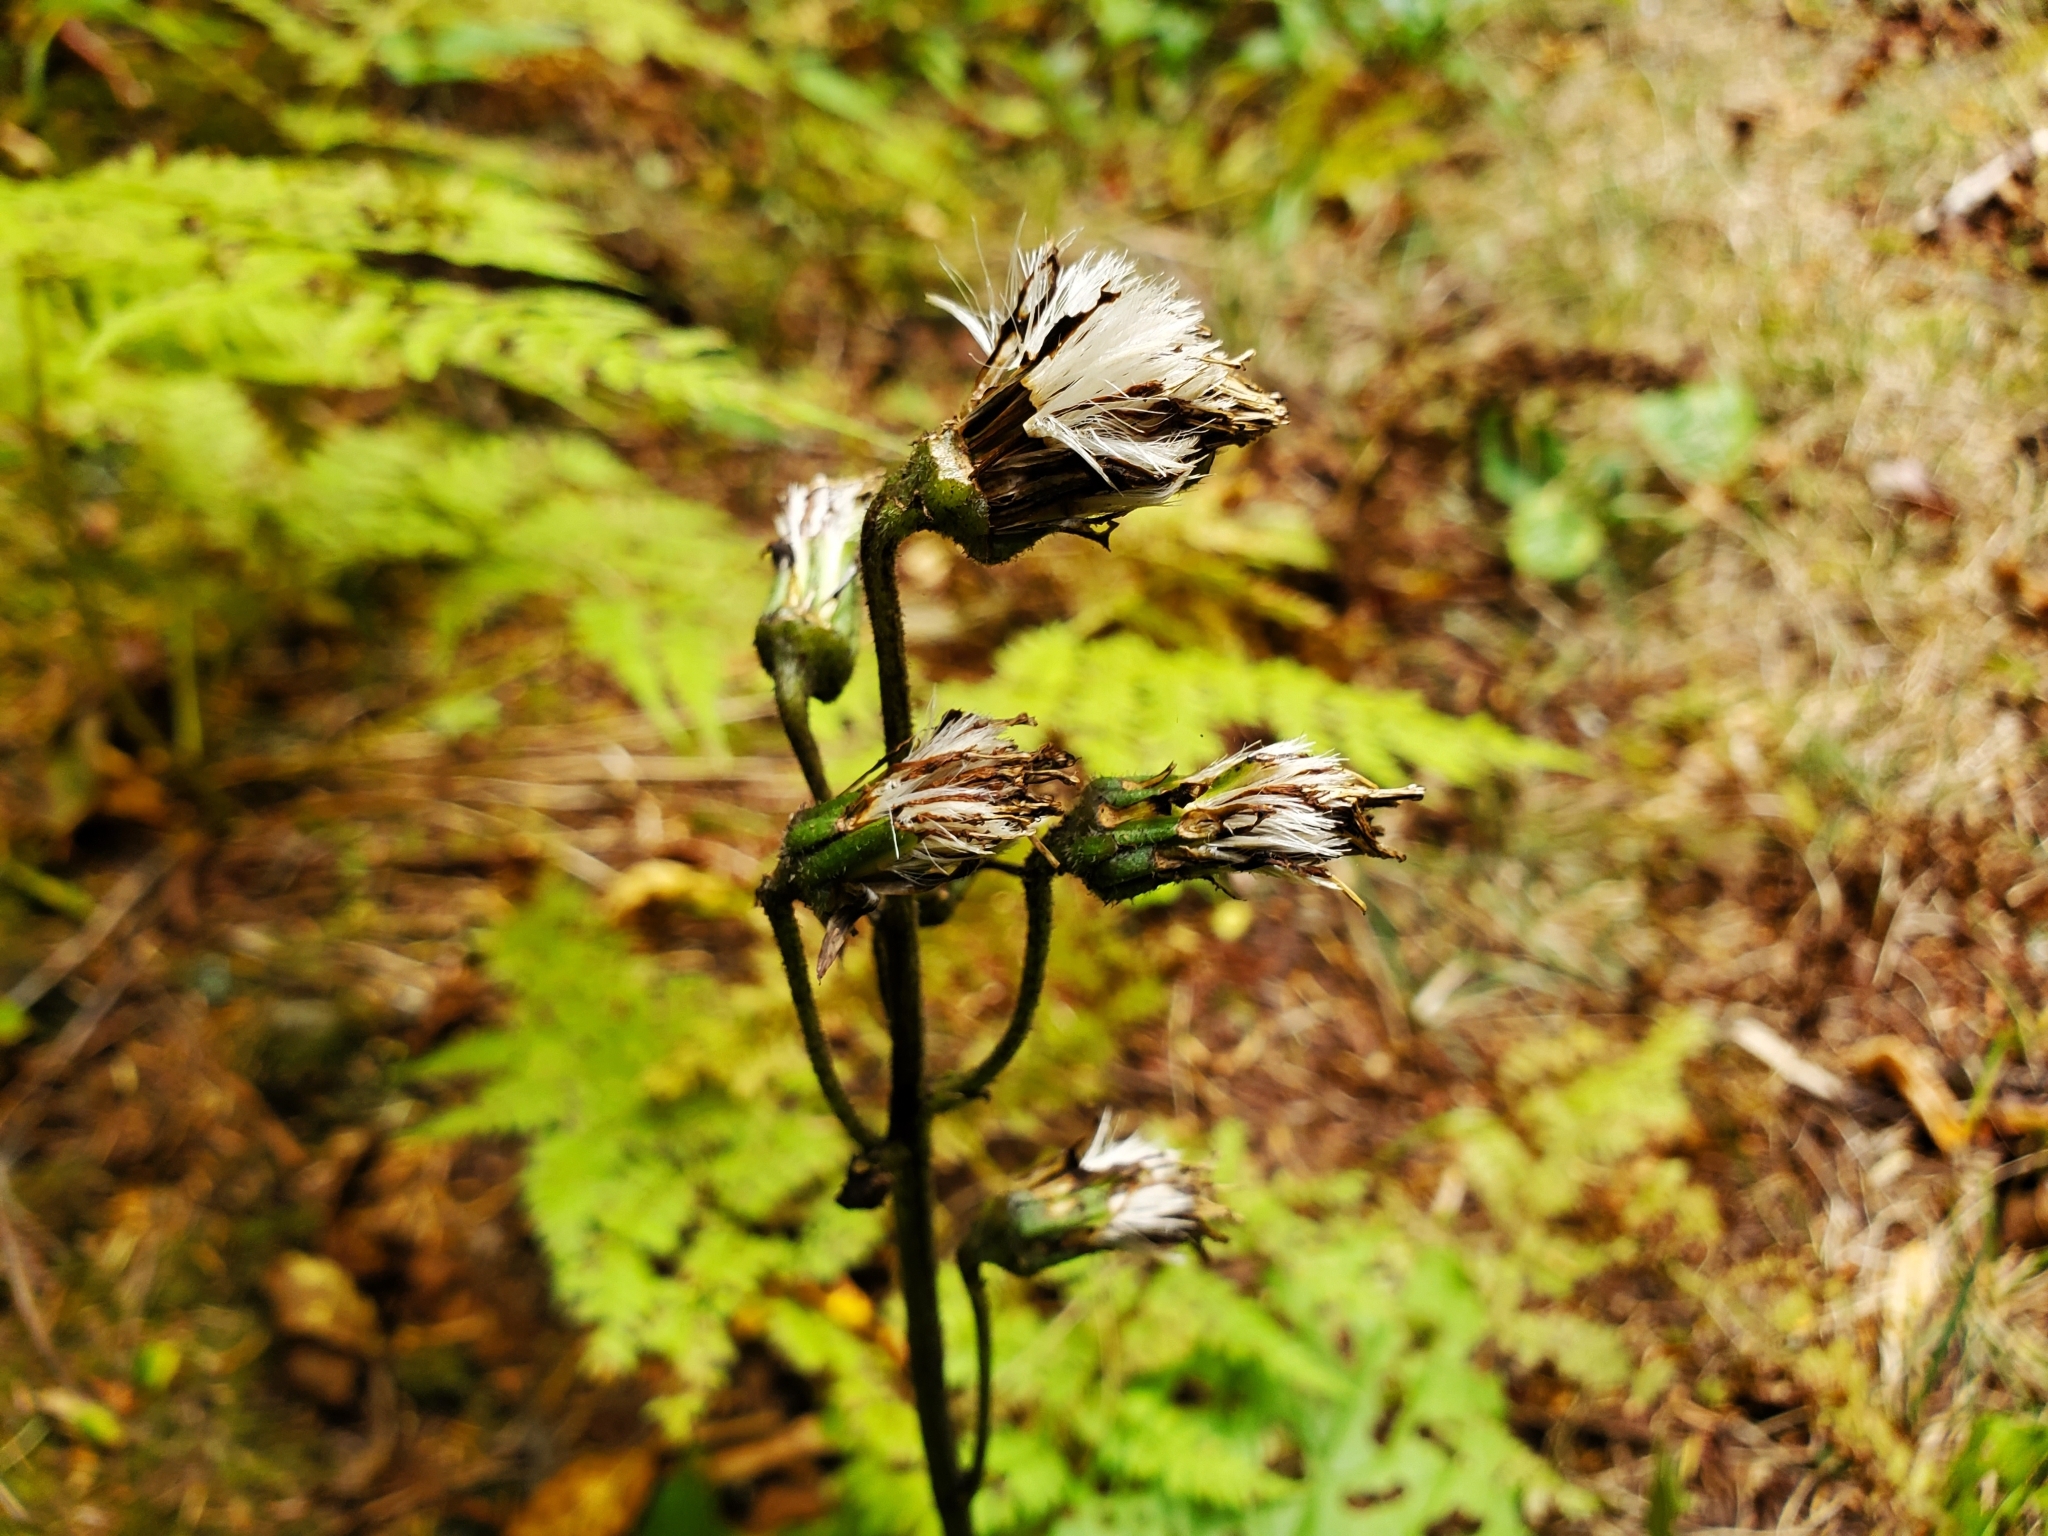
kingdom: Plantae
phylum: Tracheophyta
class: Magnoliopsida
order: Asterales
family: Asteraceae
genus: Rugelia
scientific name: Rugelia nudicaulis
